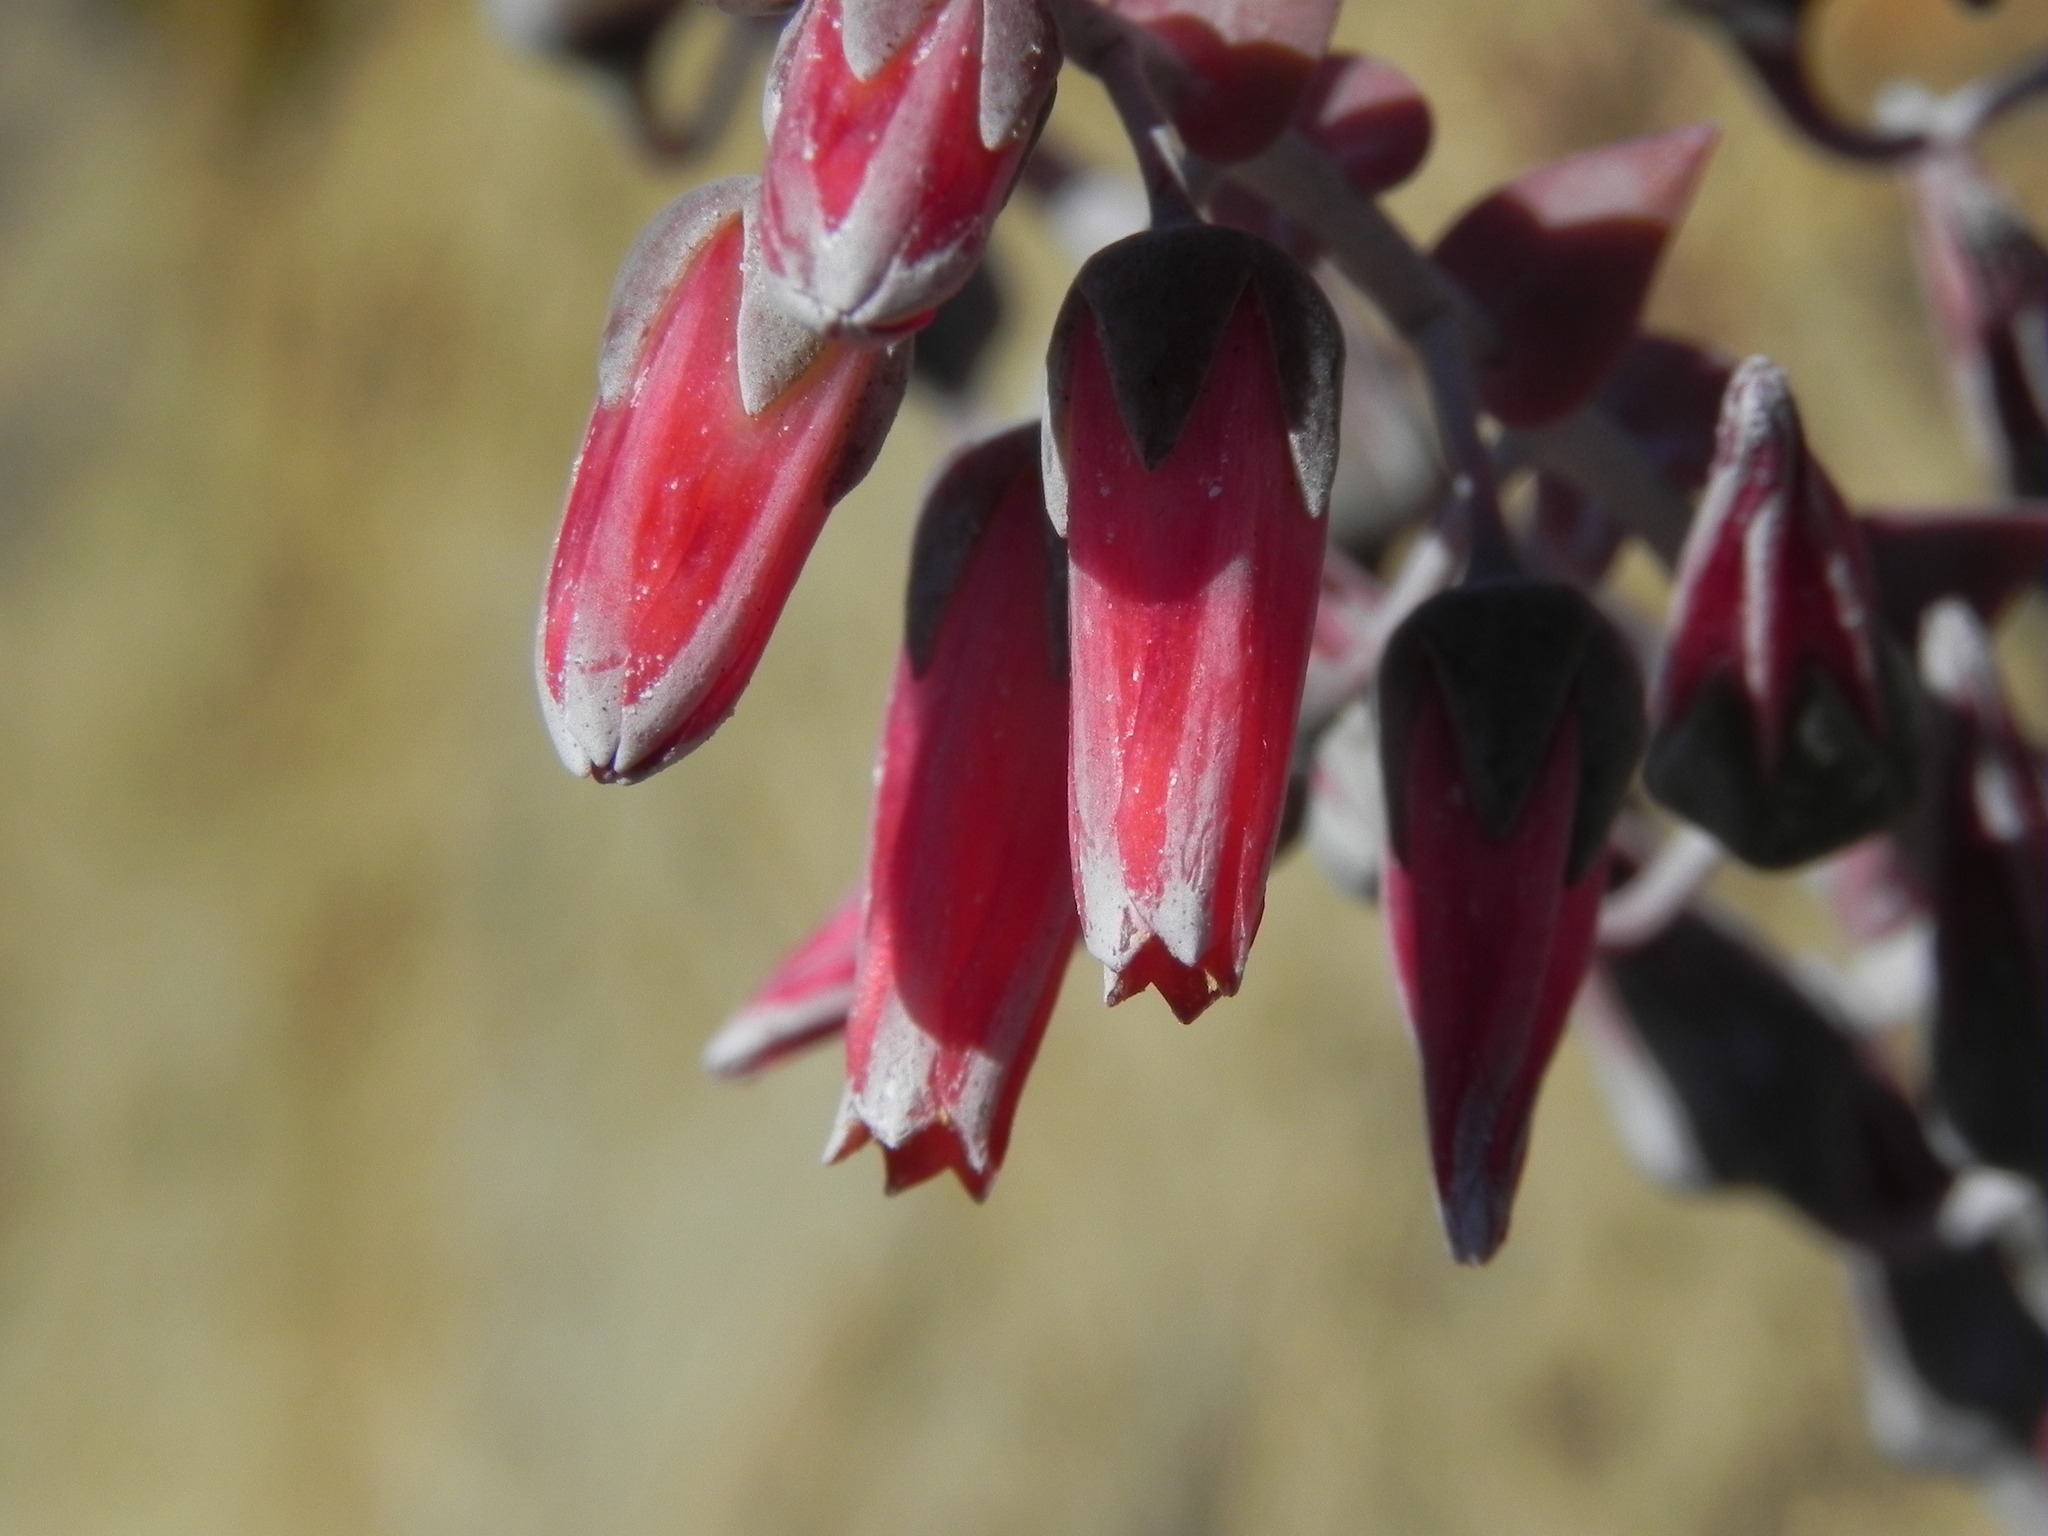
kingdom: Plantae
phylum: Tracheophyta
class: Magnoliopsida
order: Saxifragales
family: Crassulaceae
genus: Dudleya
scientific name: Dudleya pulverulenta
